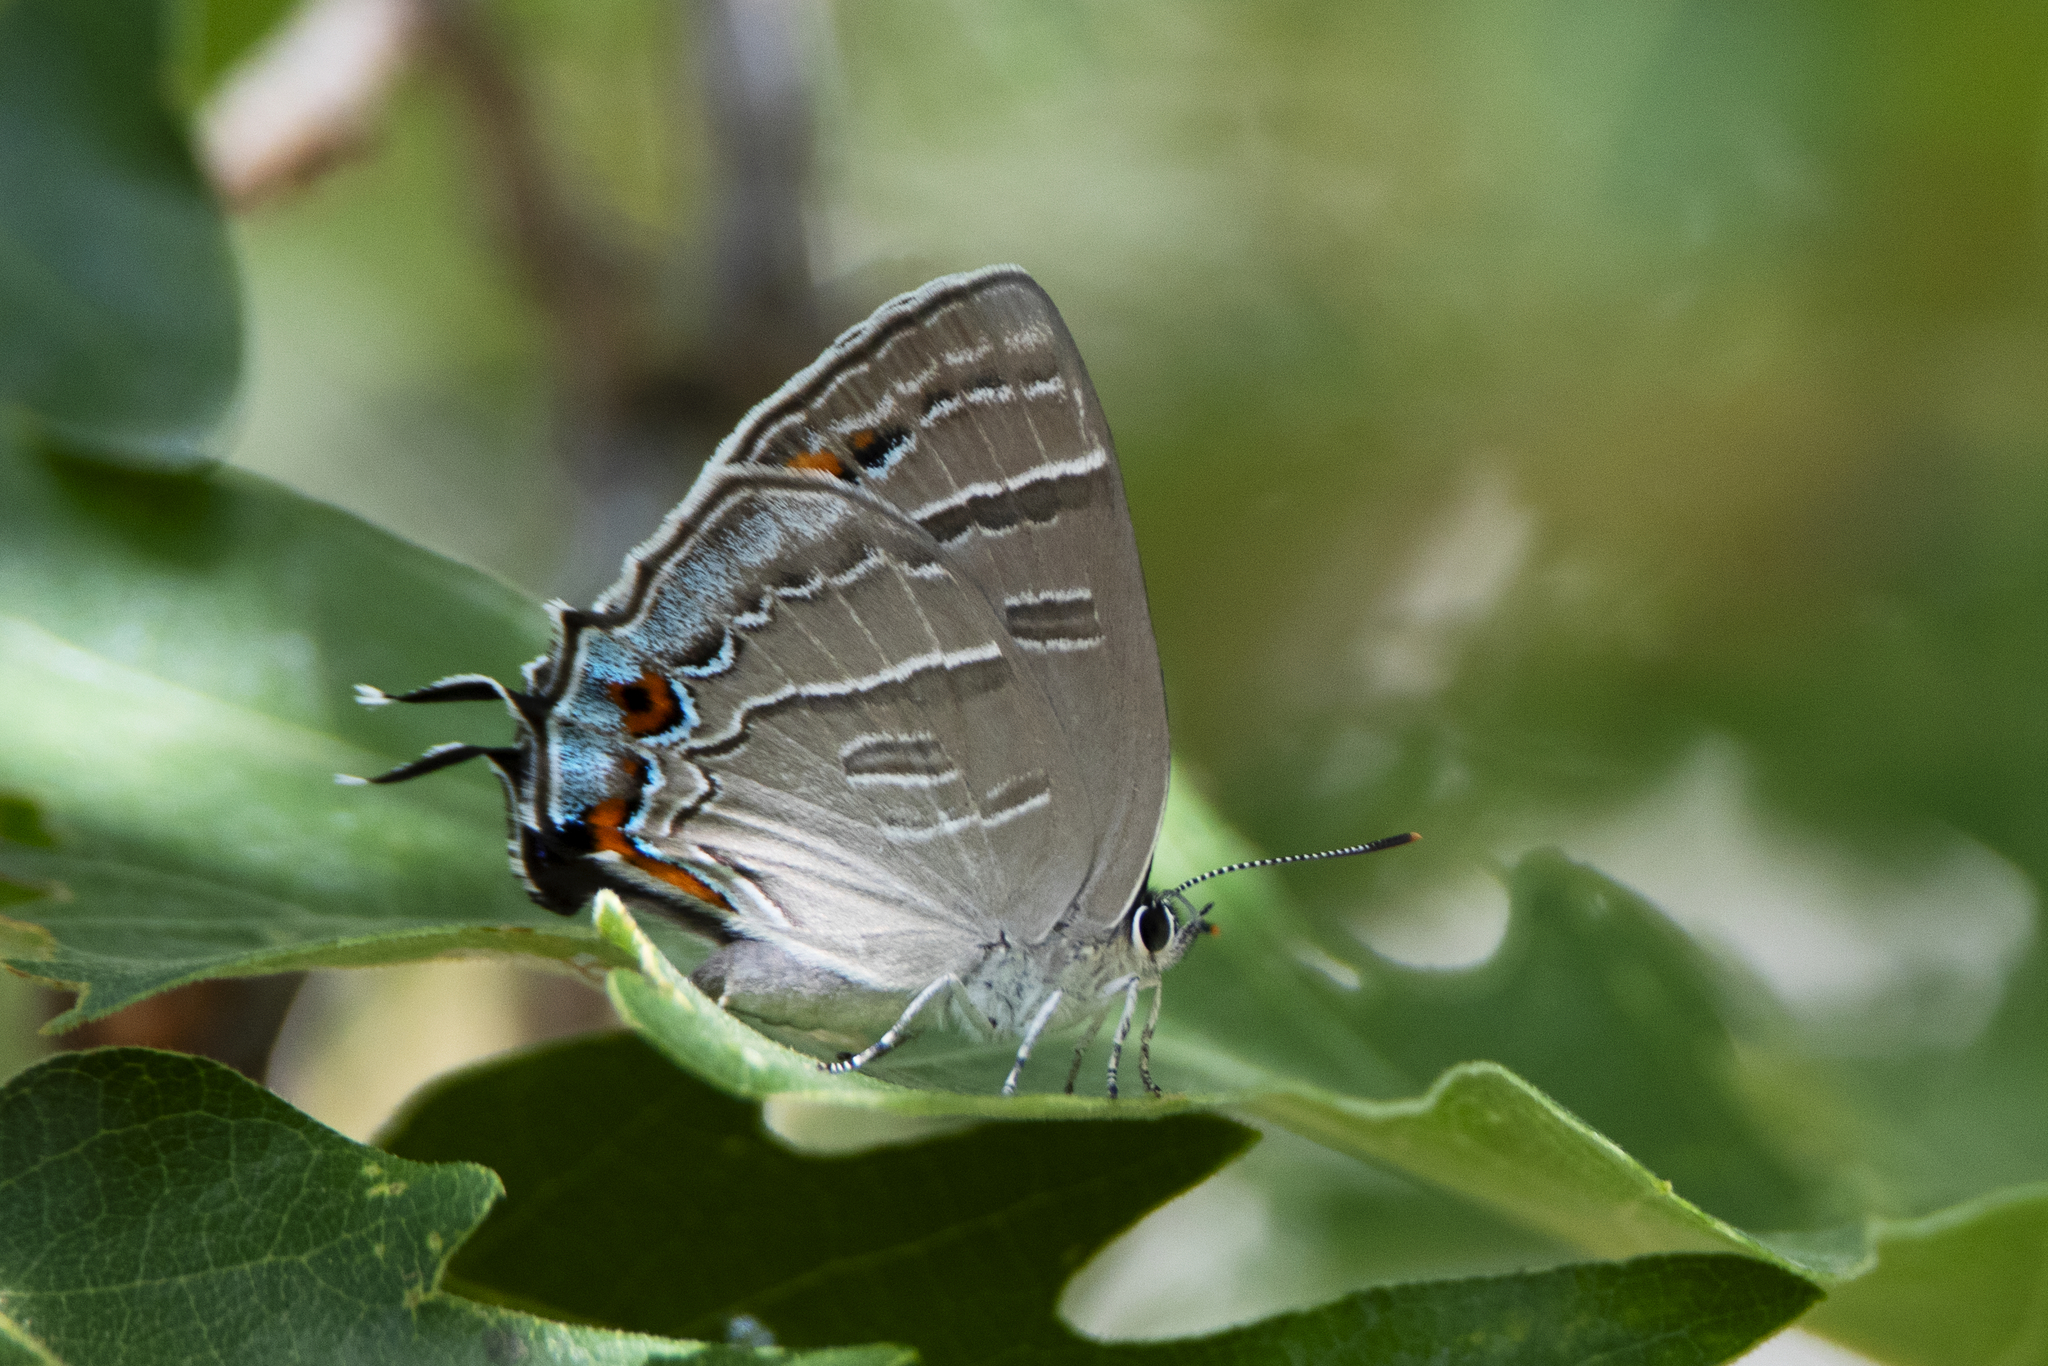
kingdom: Animalia
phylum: Arthropoda
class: Insecta
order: Lepidoptera
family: Lycaenidae
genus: Hypaurotis
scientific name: Hypaurotis crysalus
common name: Colorado hairstreak
